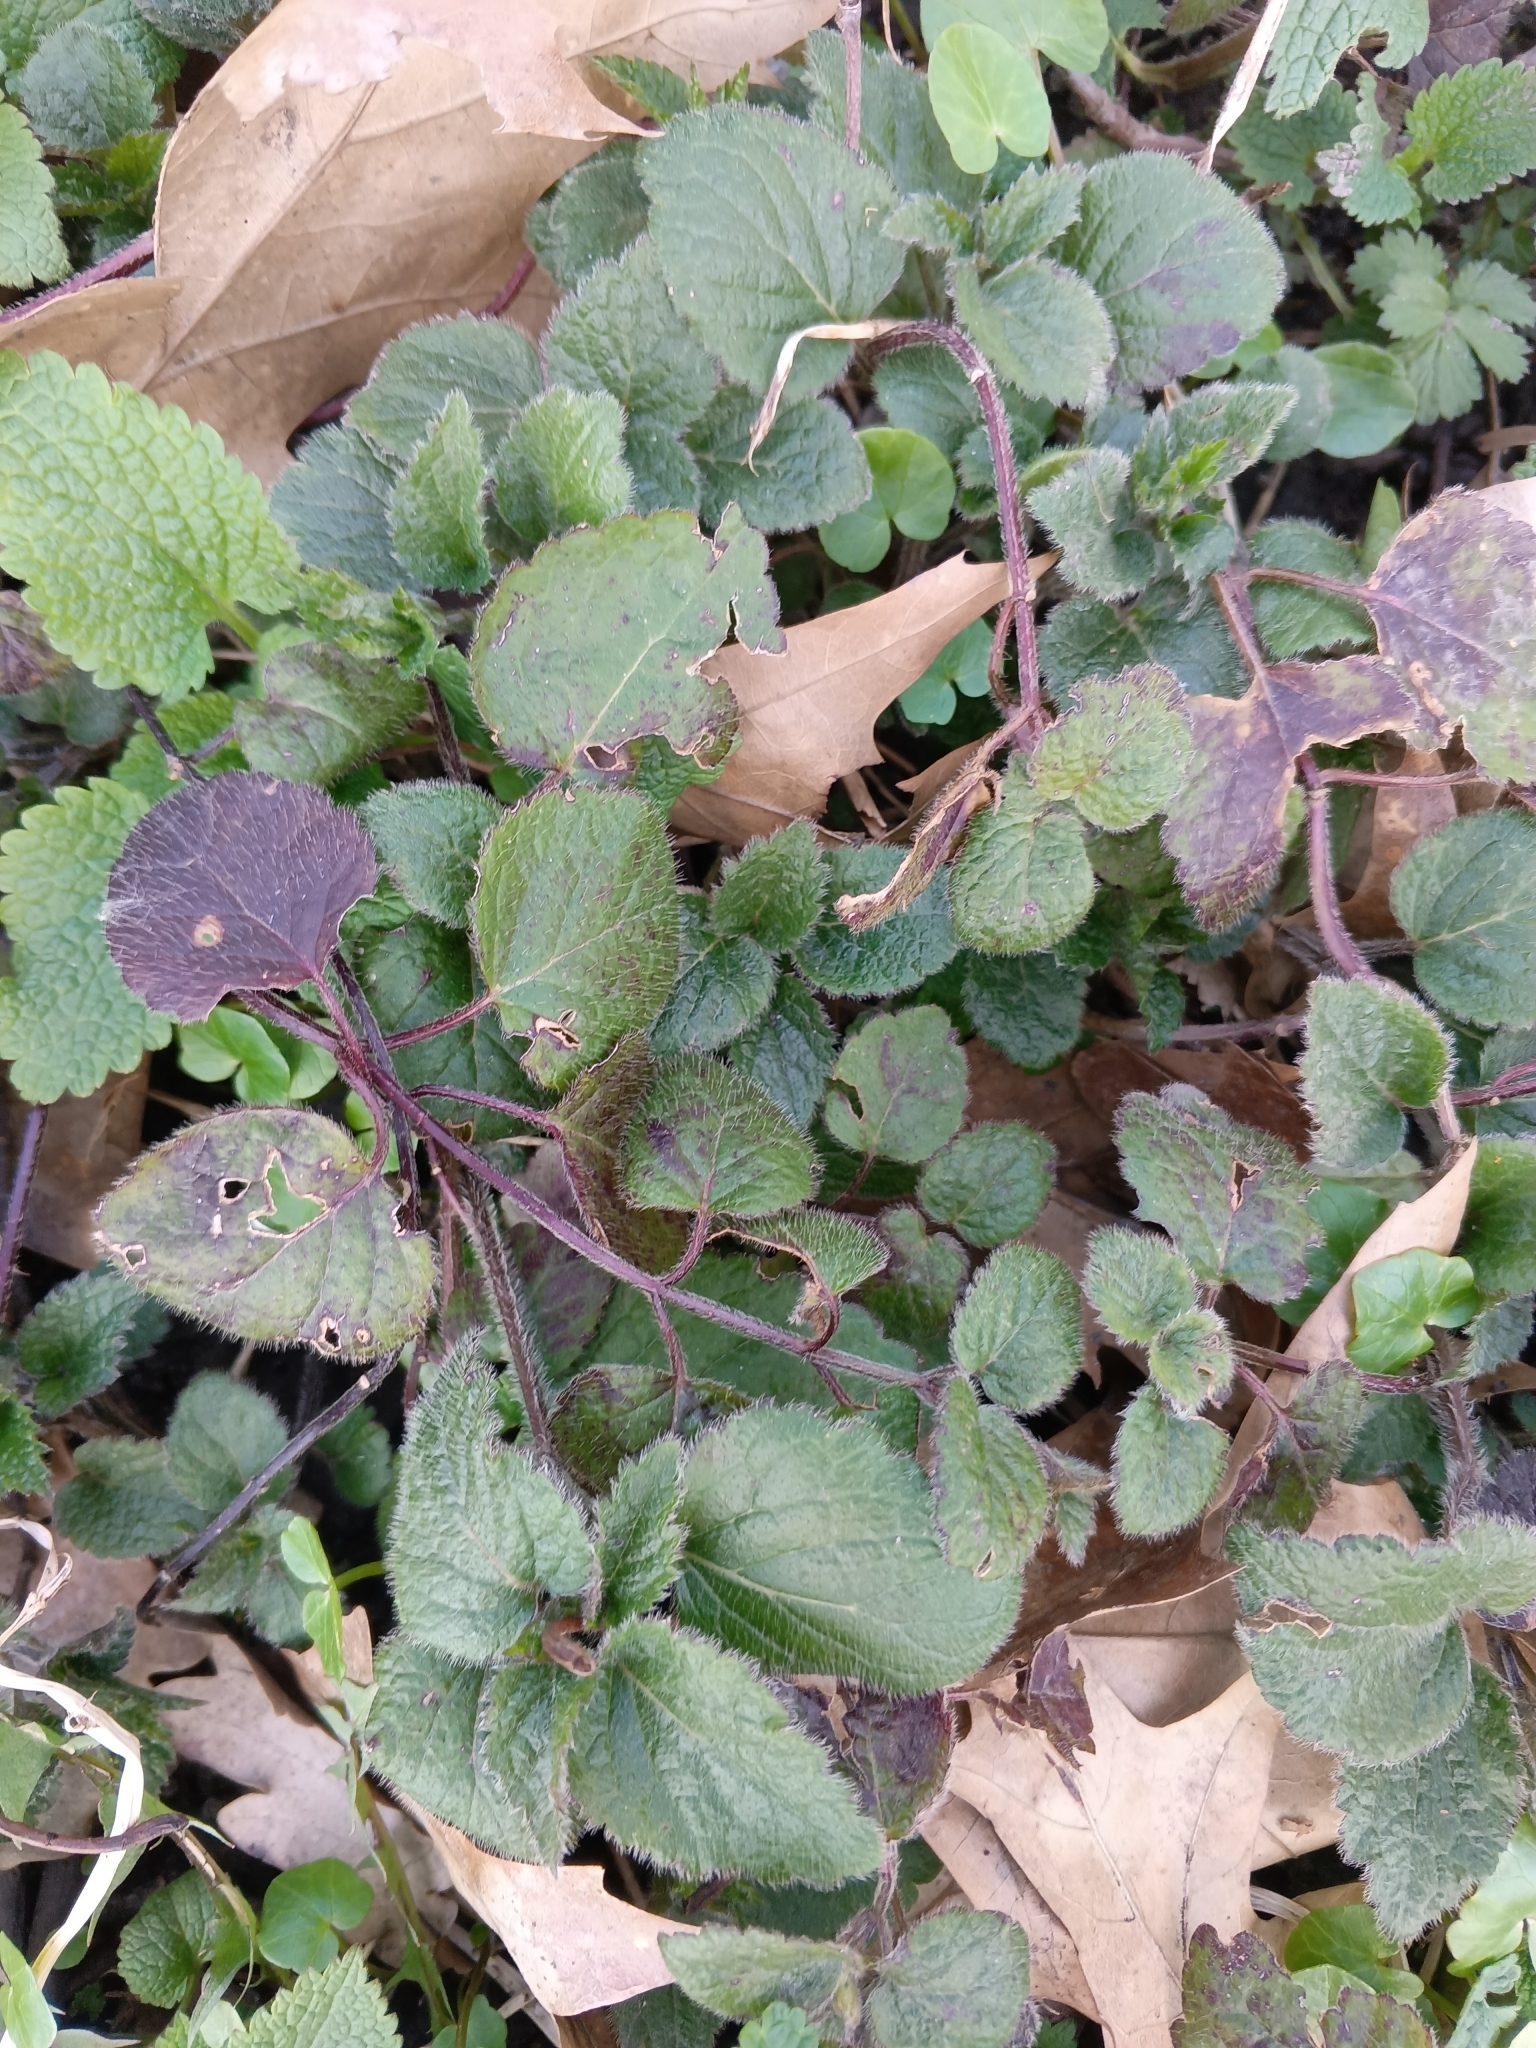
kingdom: Plantae
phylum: Tracheophyta
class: Magnoliopsida
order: Lamiales
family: Lamiaceae
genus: Lamium
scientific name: Lamium galeobdolon
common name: Yellow archangel
